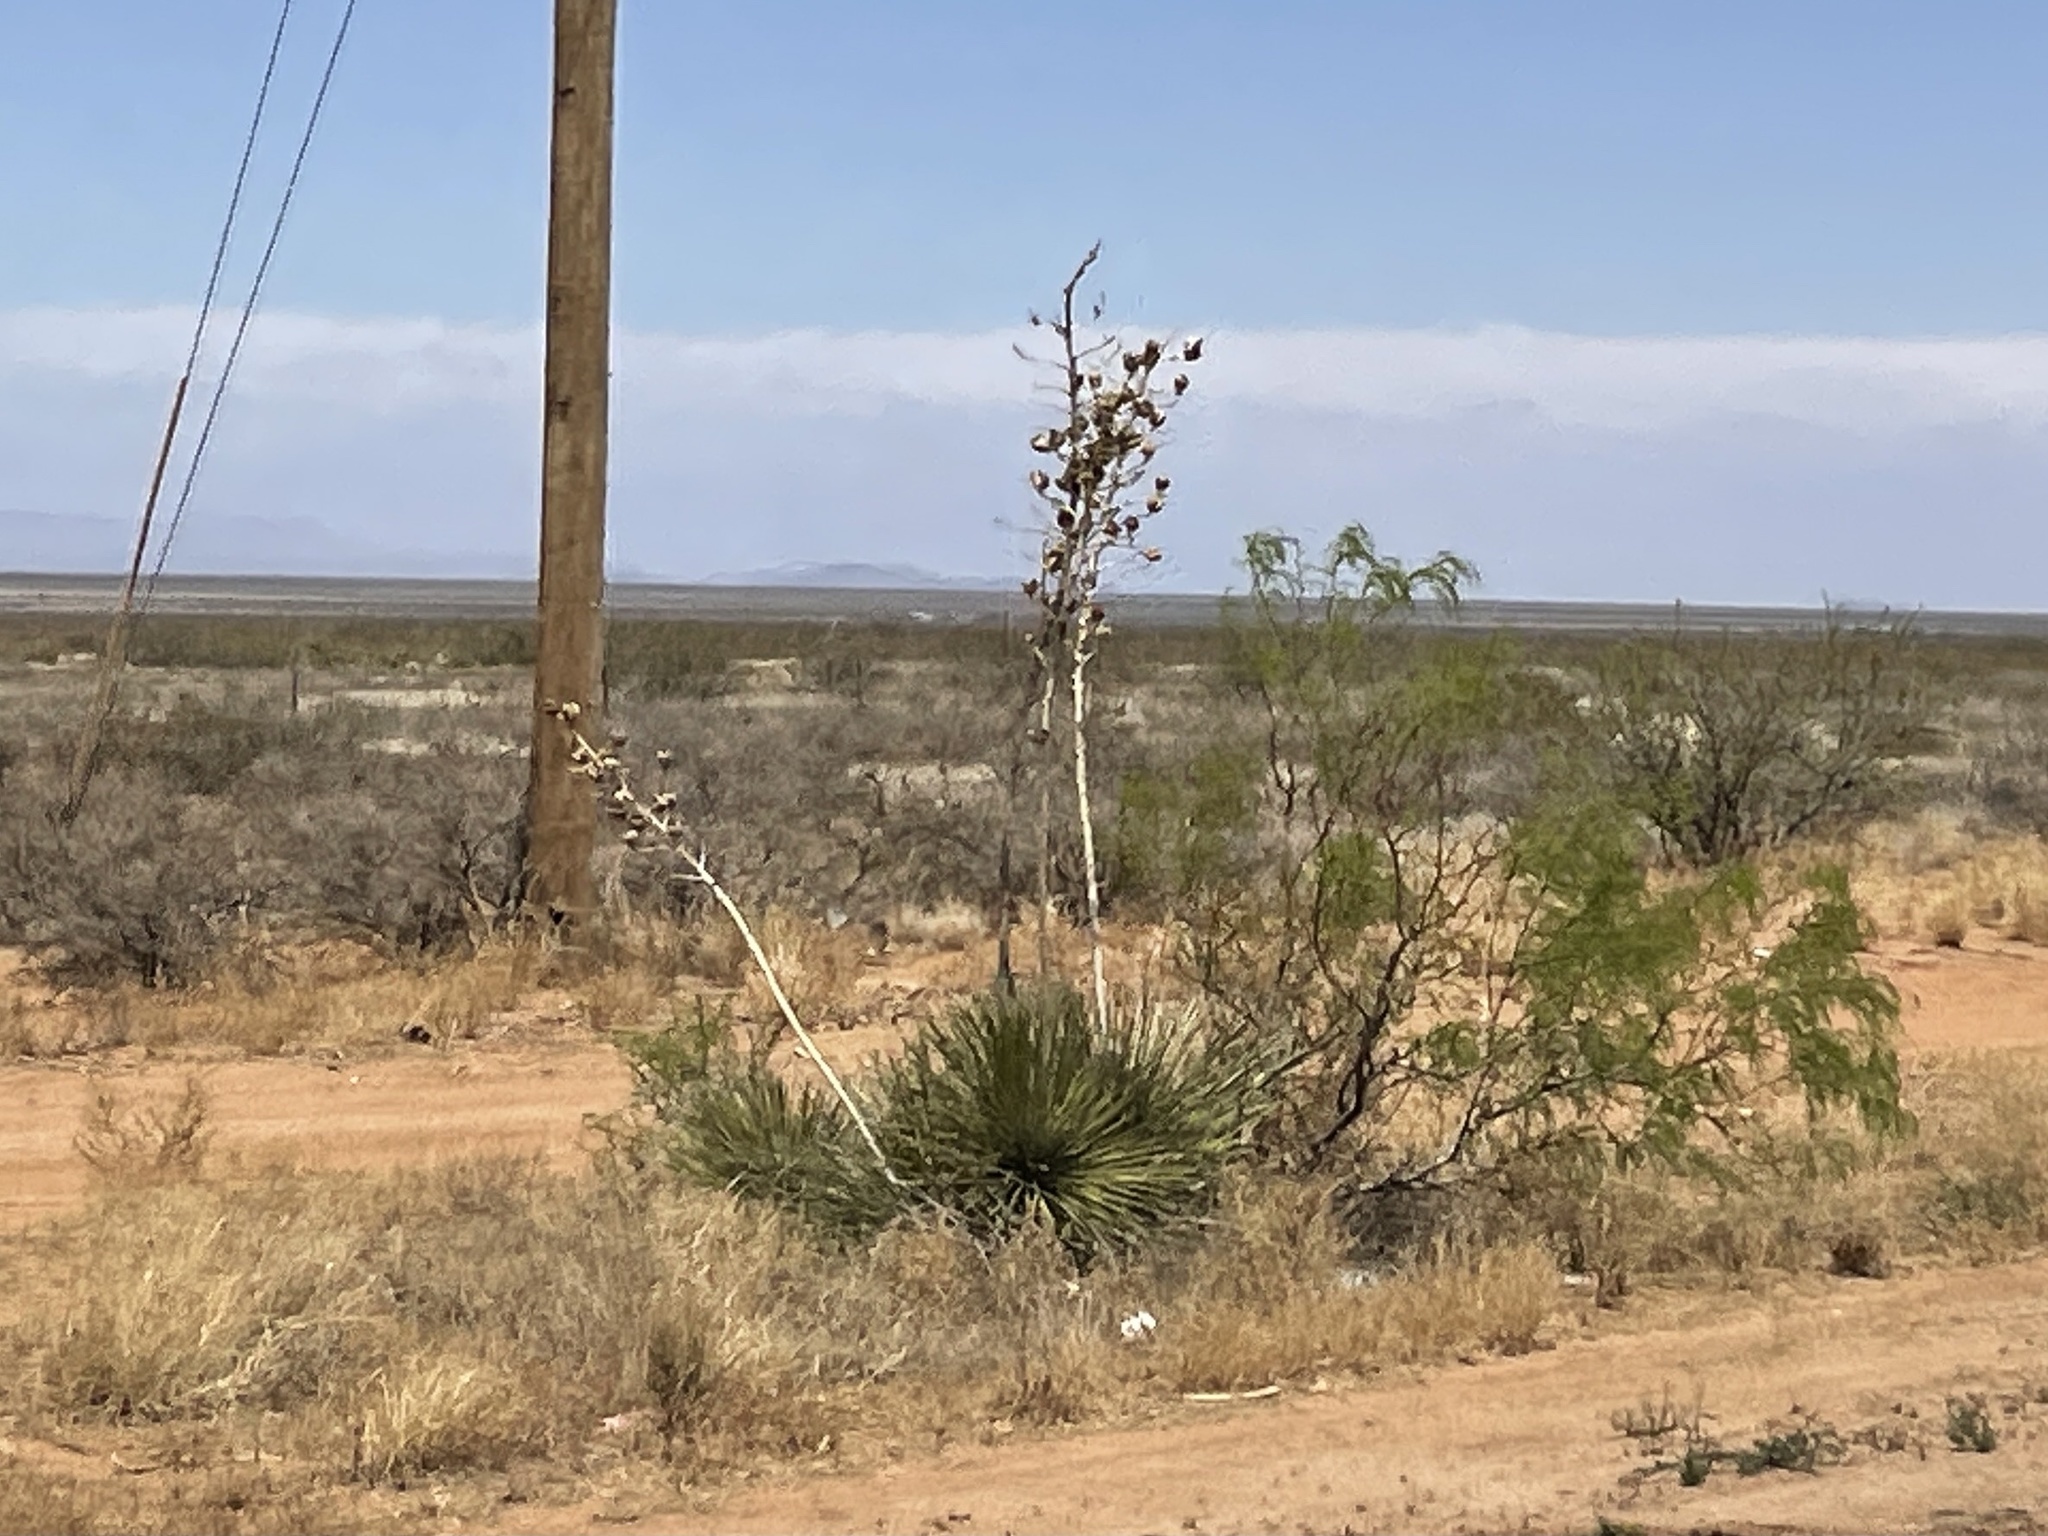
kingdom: Plantae
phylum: Tracheophyta
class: Liliopsida
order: Asparagales
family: Asparagaceae
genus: Yucca
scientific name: Yucca elata
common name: Palmella
